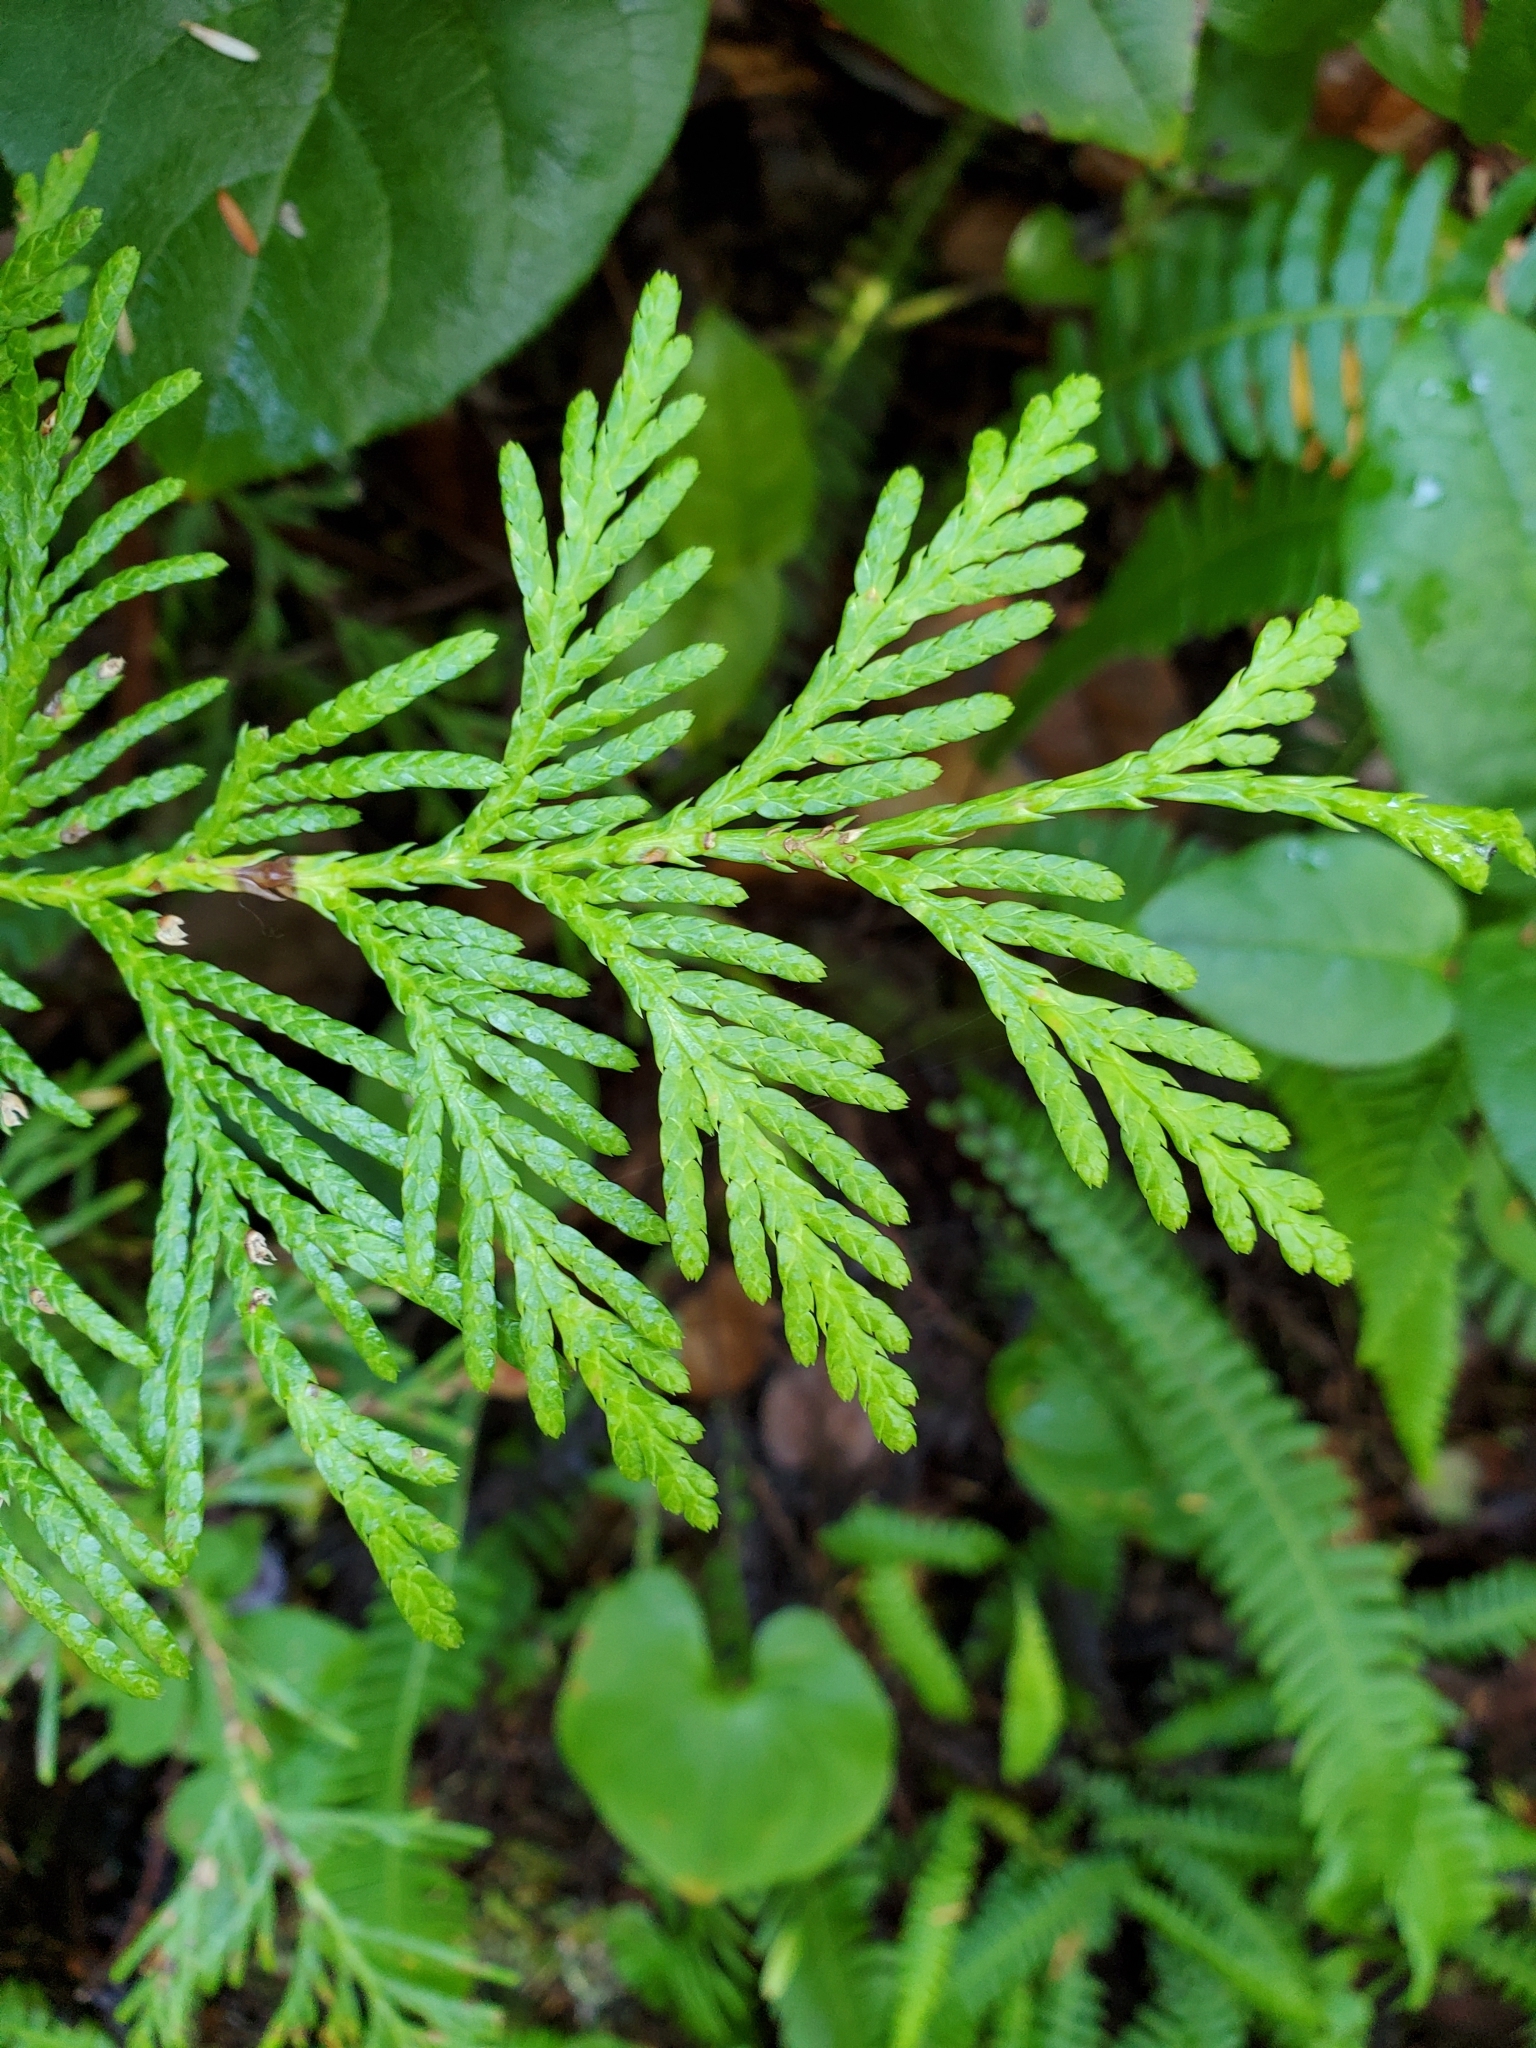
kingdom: Plantae
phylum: Tracheophyta
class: Pinopsida
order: Pinales
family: Cupressaceae
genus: Thuja
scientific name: Thuja plicata
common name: Western red-cedar
